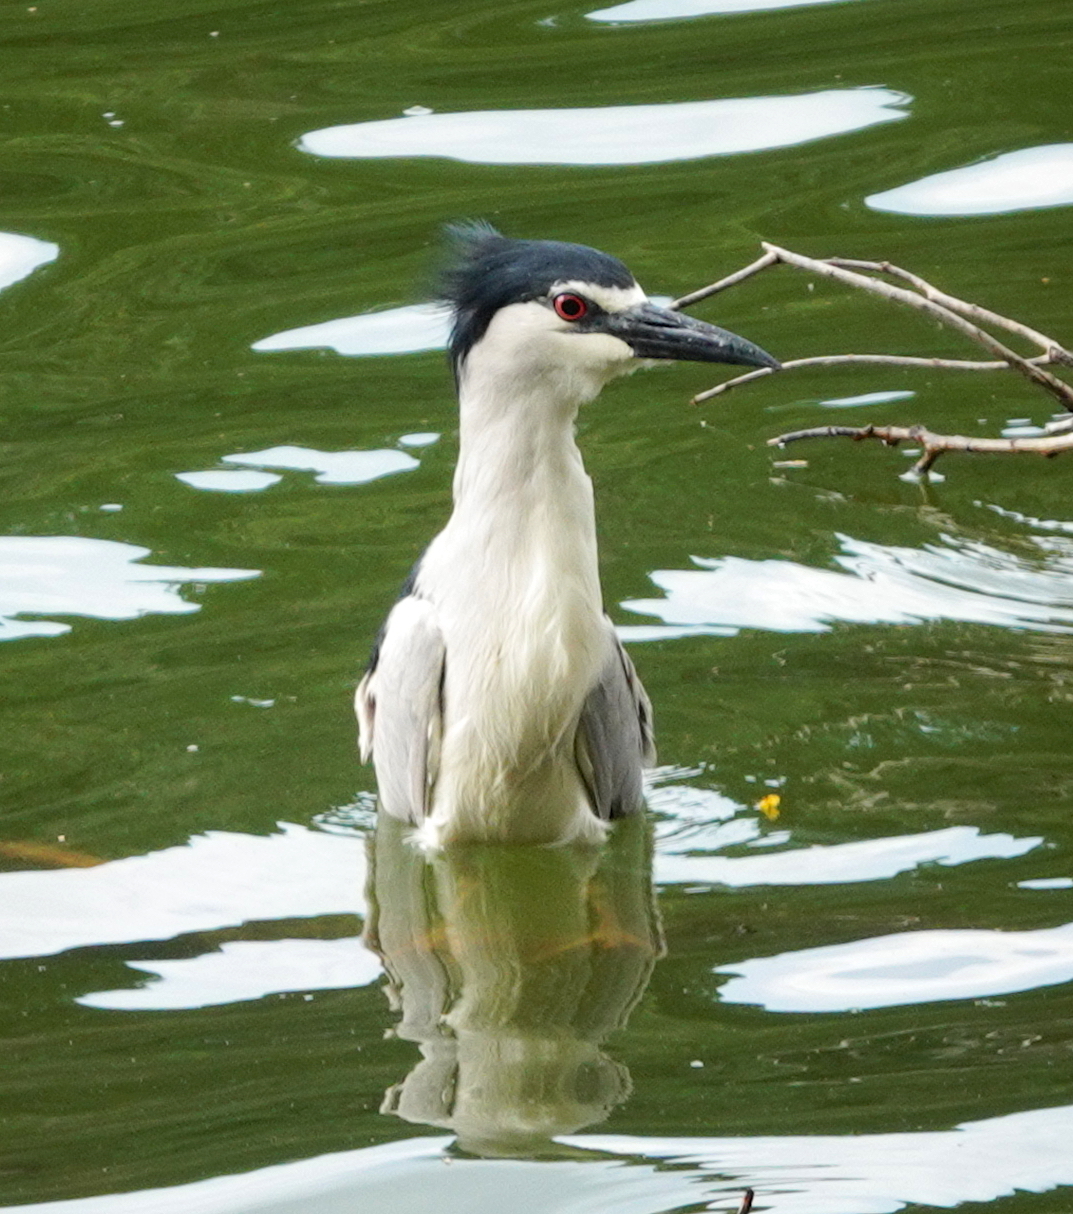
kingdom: Animalia
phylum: Chordata
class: Aves
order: Pelecaniformes
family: Ardeidae
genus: Nycticorax
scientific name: Nycticorax nycticorax
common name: Black-crowned night heron
